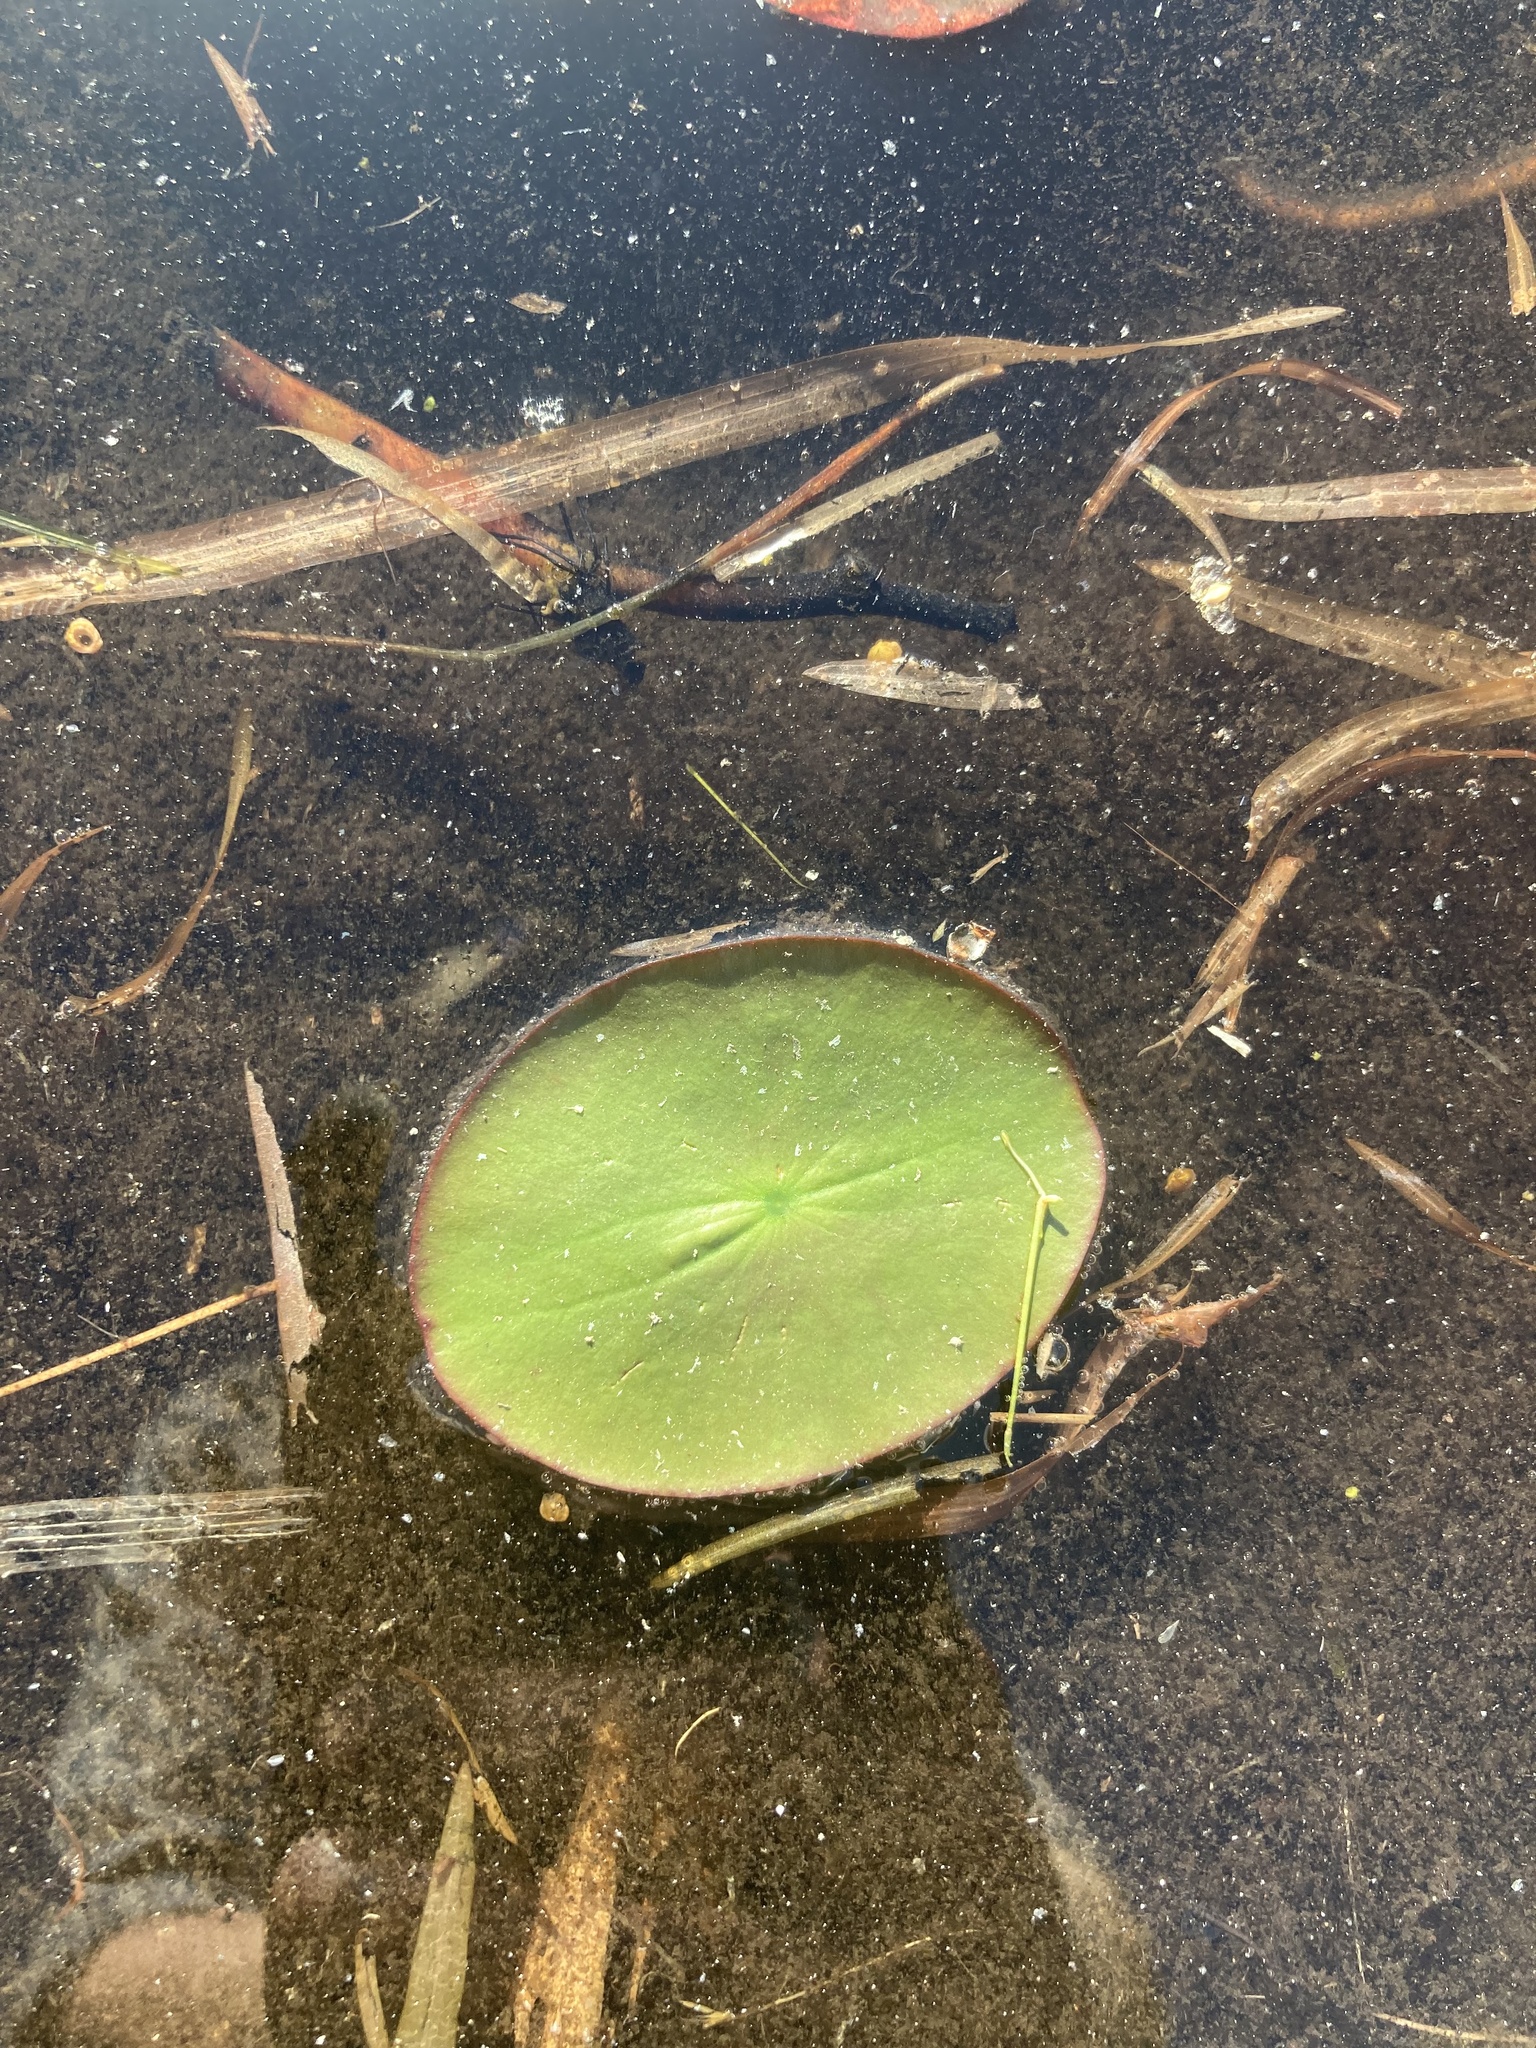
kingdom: Plantae
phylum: Tracheophyta
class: Magnoliopsida
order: Nymphaeales
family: Cabombaceae
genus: Brasenia
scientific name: Brasenia schreberi
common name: Water-shield
